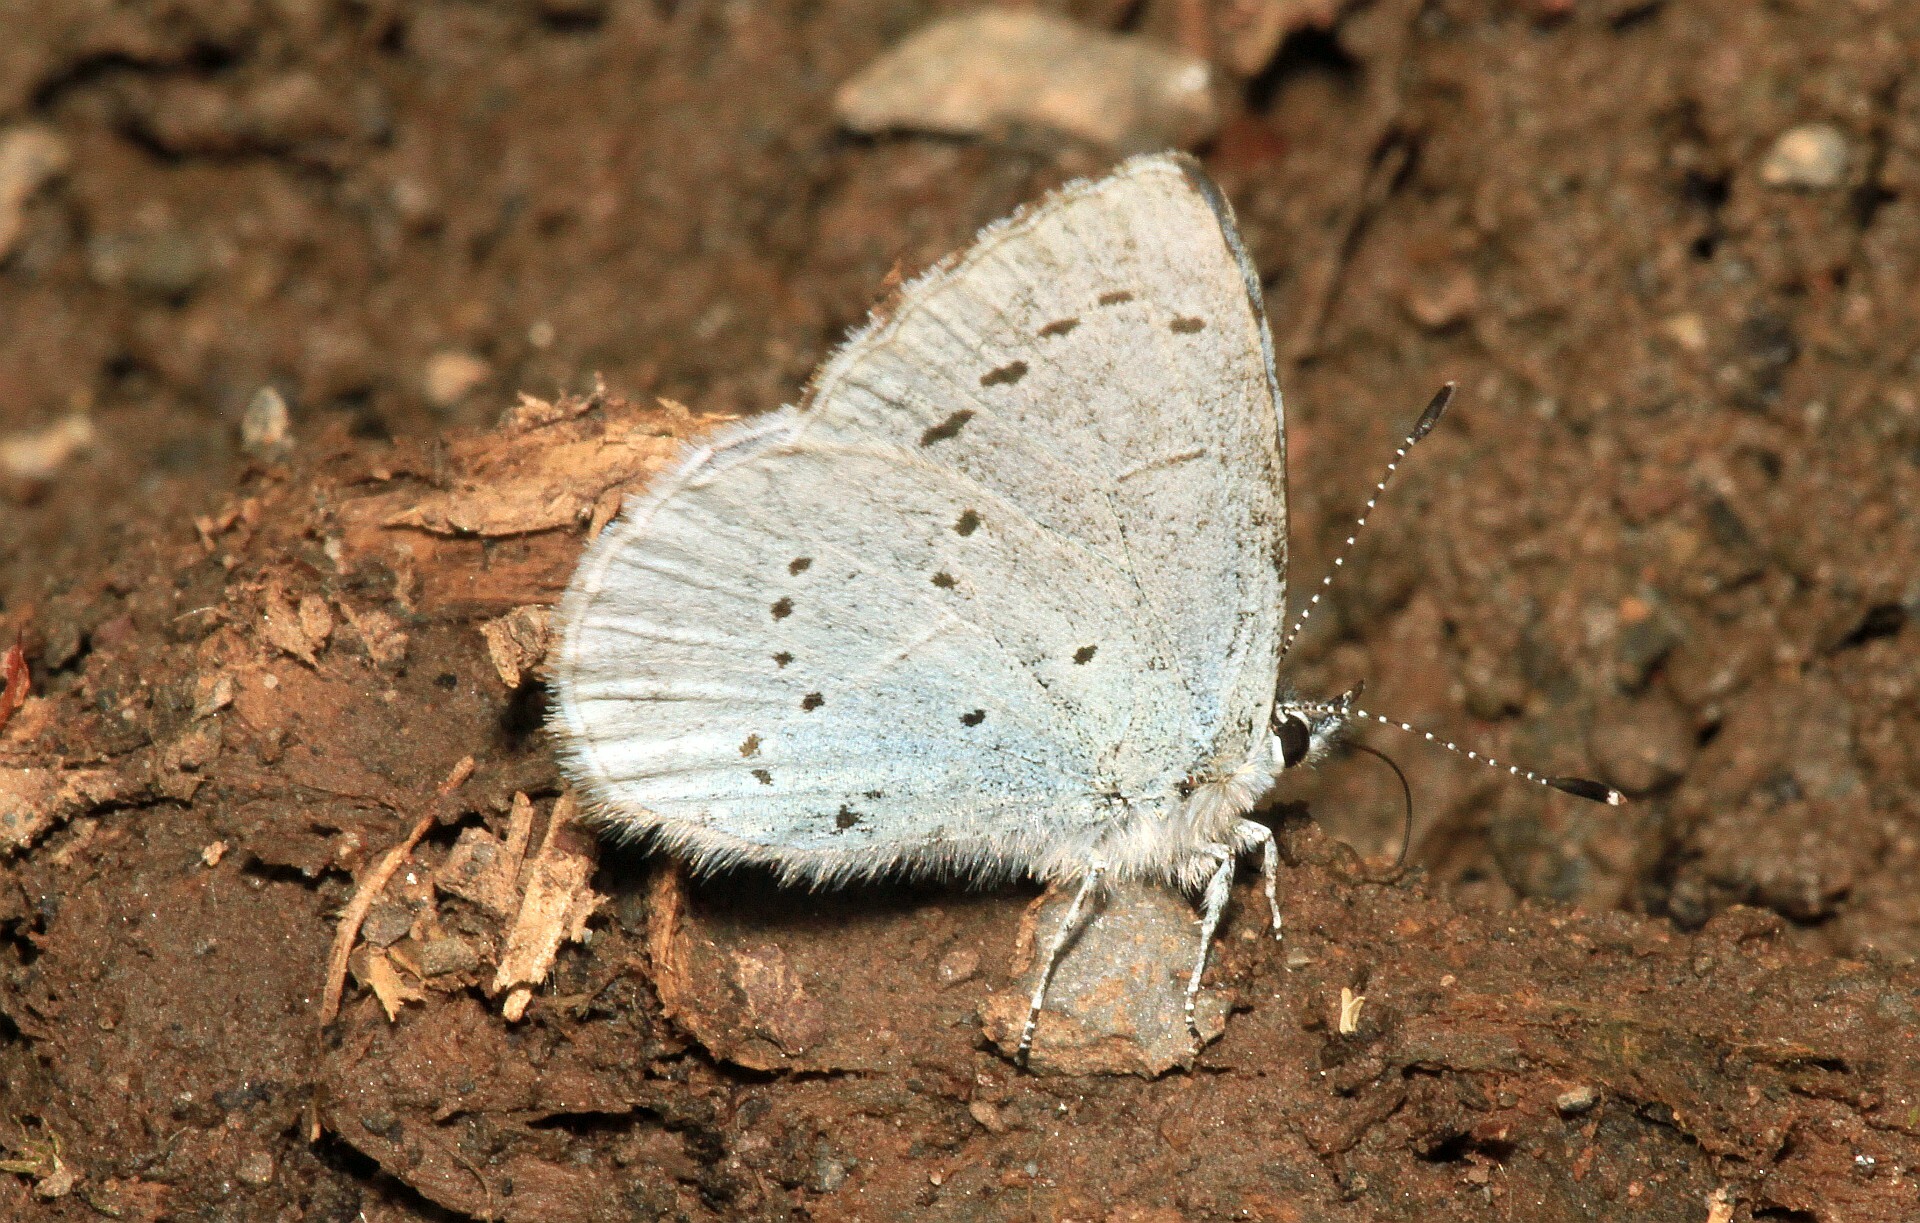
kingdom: Animalia
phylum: Arthropoda
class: Insecta
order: Lepidoptera
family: Lycaenidae
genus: Celastrina
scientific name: Celastrina argiolus
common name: Holly blue
